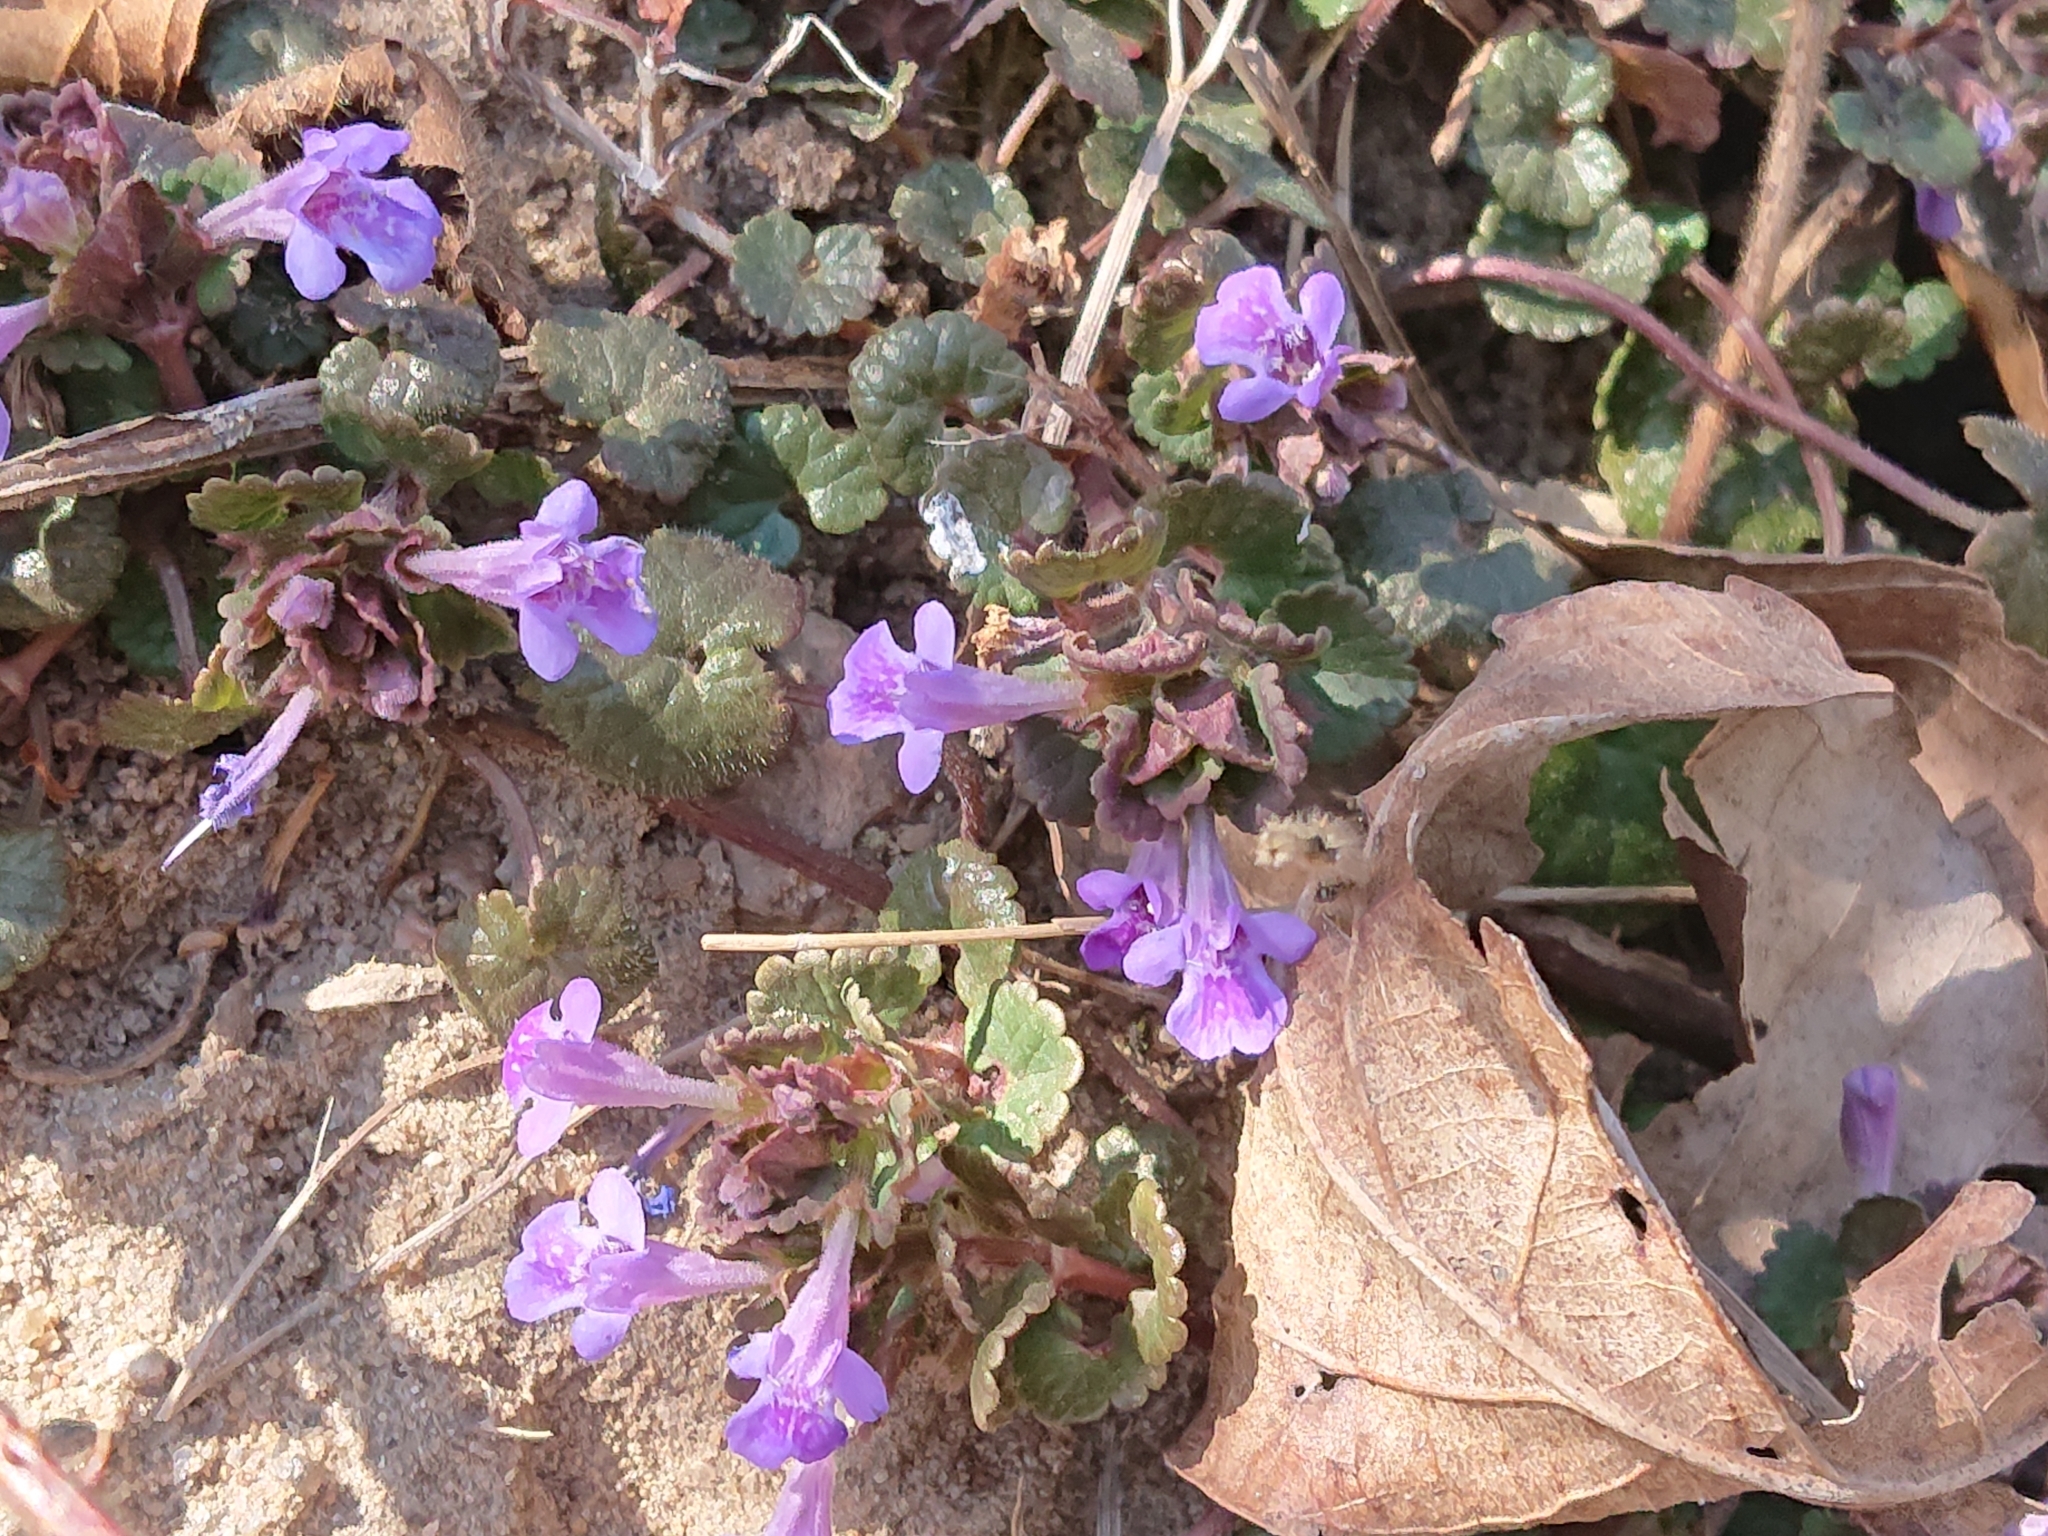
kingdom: Plantae
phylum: Tracheophyta
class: Magnoliopsida
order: Lamiales
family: Lamiaceae
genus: Glechoma
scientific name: Glechoma hederacea
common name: Ground ivy
